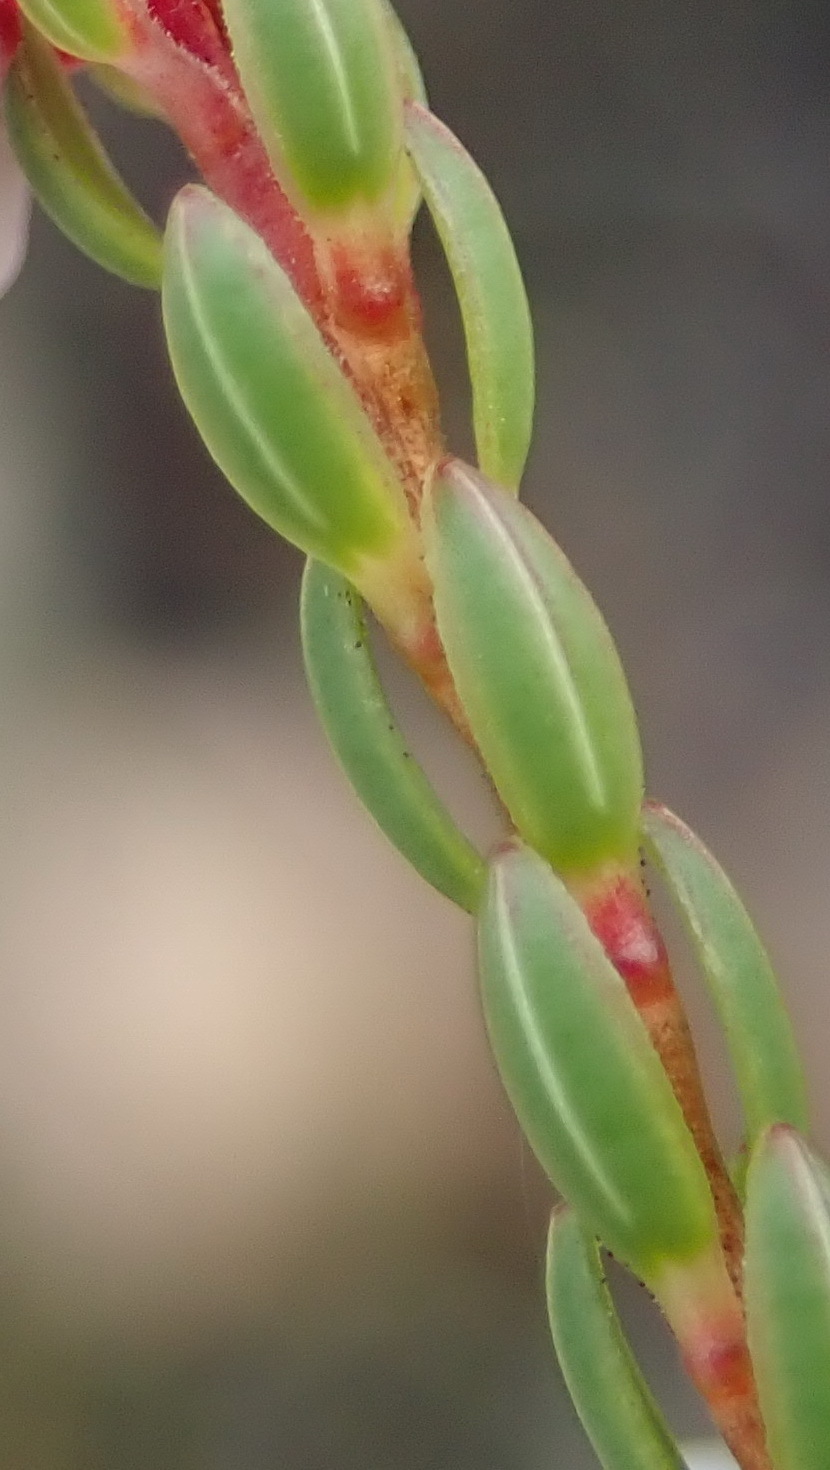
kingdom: Plantae
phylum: Tracheophyta
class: Magnoliopsida
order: Ericales
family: Ericaceae
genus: Erica
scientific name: Erica articularis
